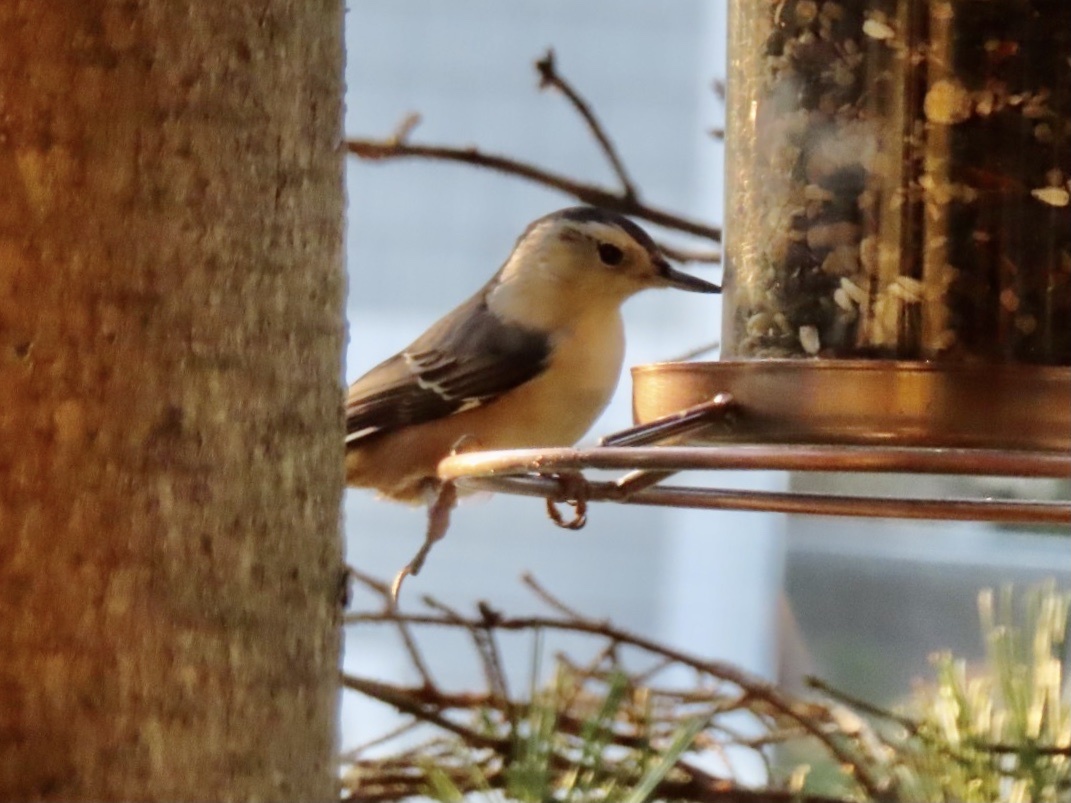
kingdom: Animalia
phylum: Chordata
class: Aves
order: Passeriformes
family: Sittidae
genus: Sitta
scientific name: Sitta carolinensis
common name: White-breasted nuthatch
